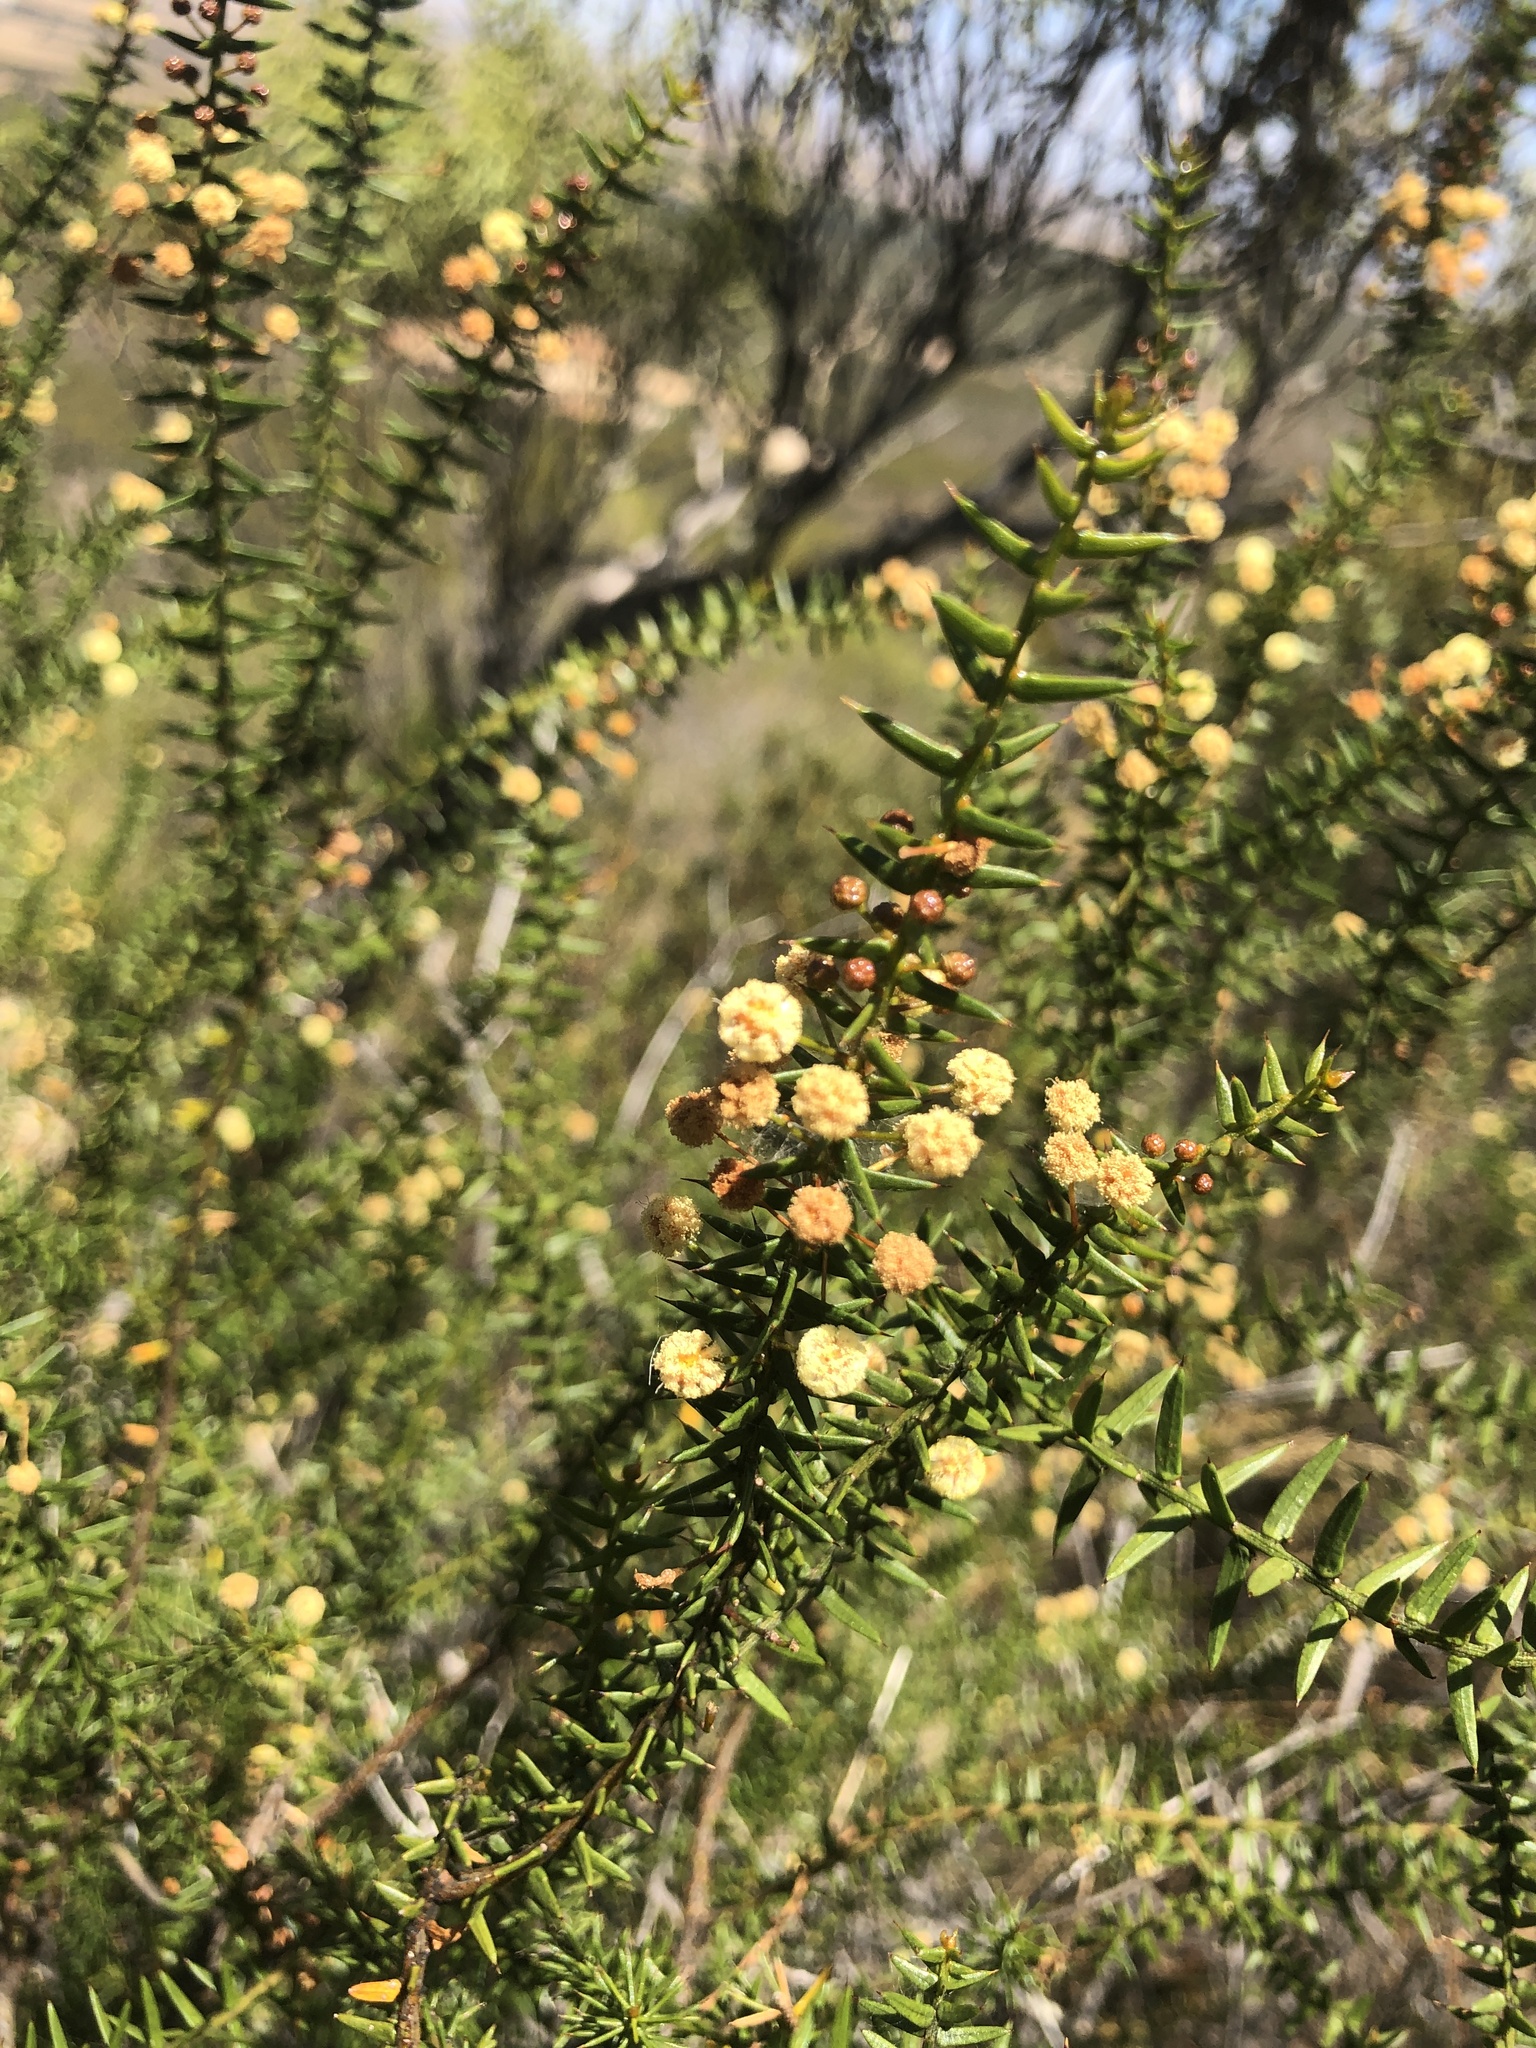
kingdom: Plantae
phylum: Tracheophyta
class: Magnoliopsida
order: Fabales
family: Fabaceae
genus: Acacia
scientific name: Acacia rupicola
